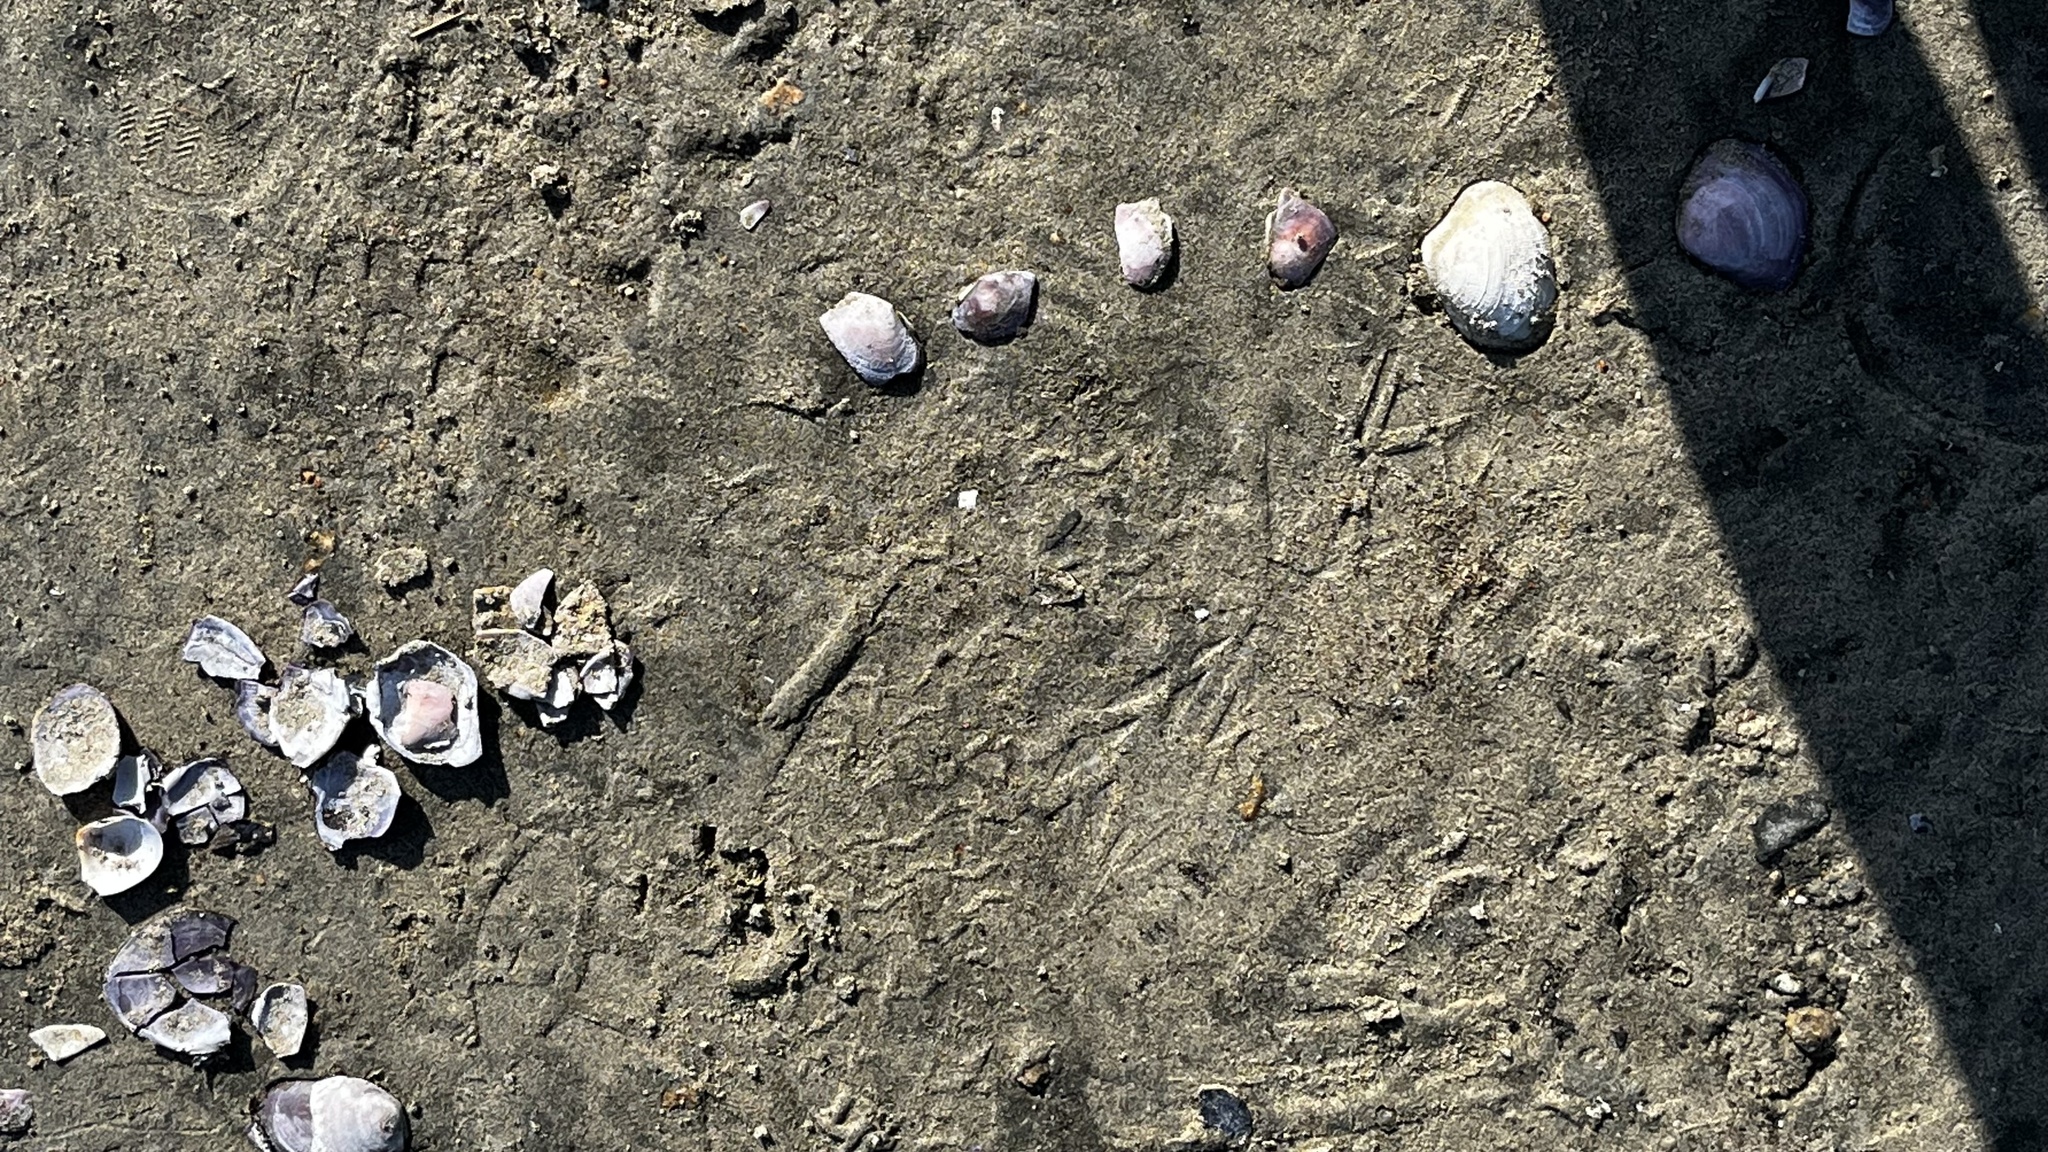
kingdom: Animalia
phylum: Mollusca
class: Bivalvia
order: Cardiida
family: Psammobiidae
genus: Nuttallia
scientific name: Nuttallia obscurata
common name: Purple mahogany-clam
